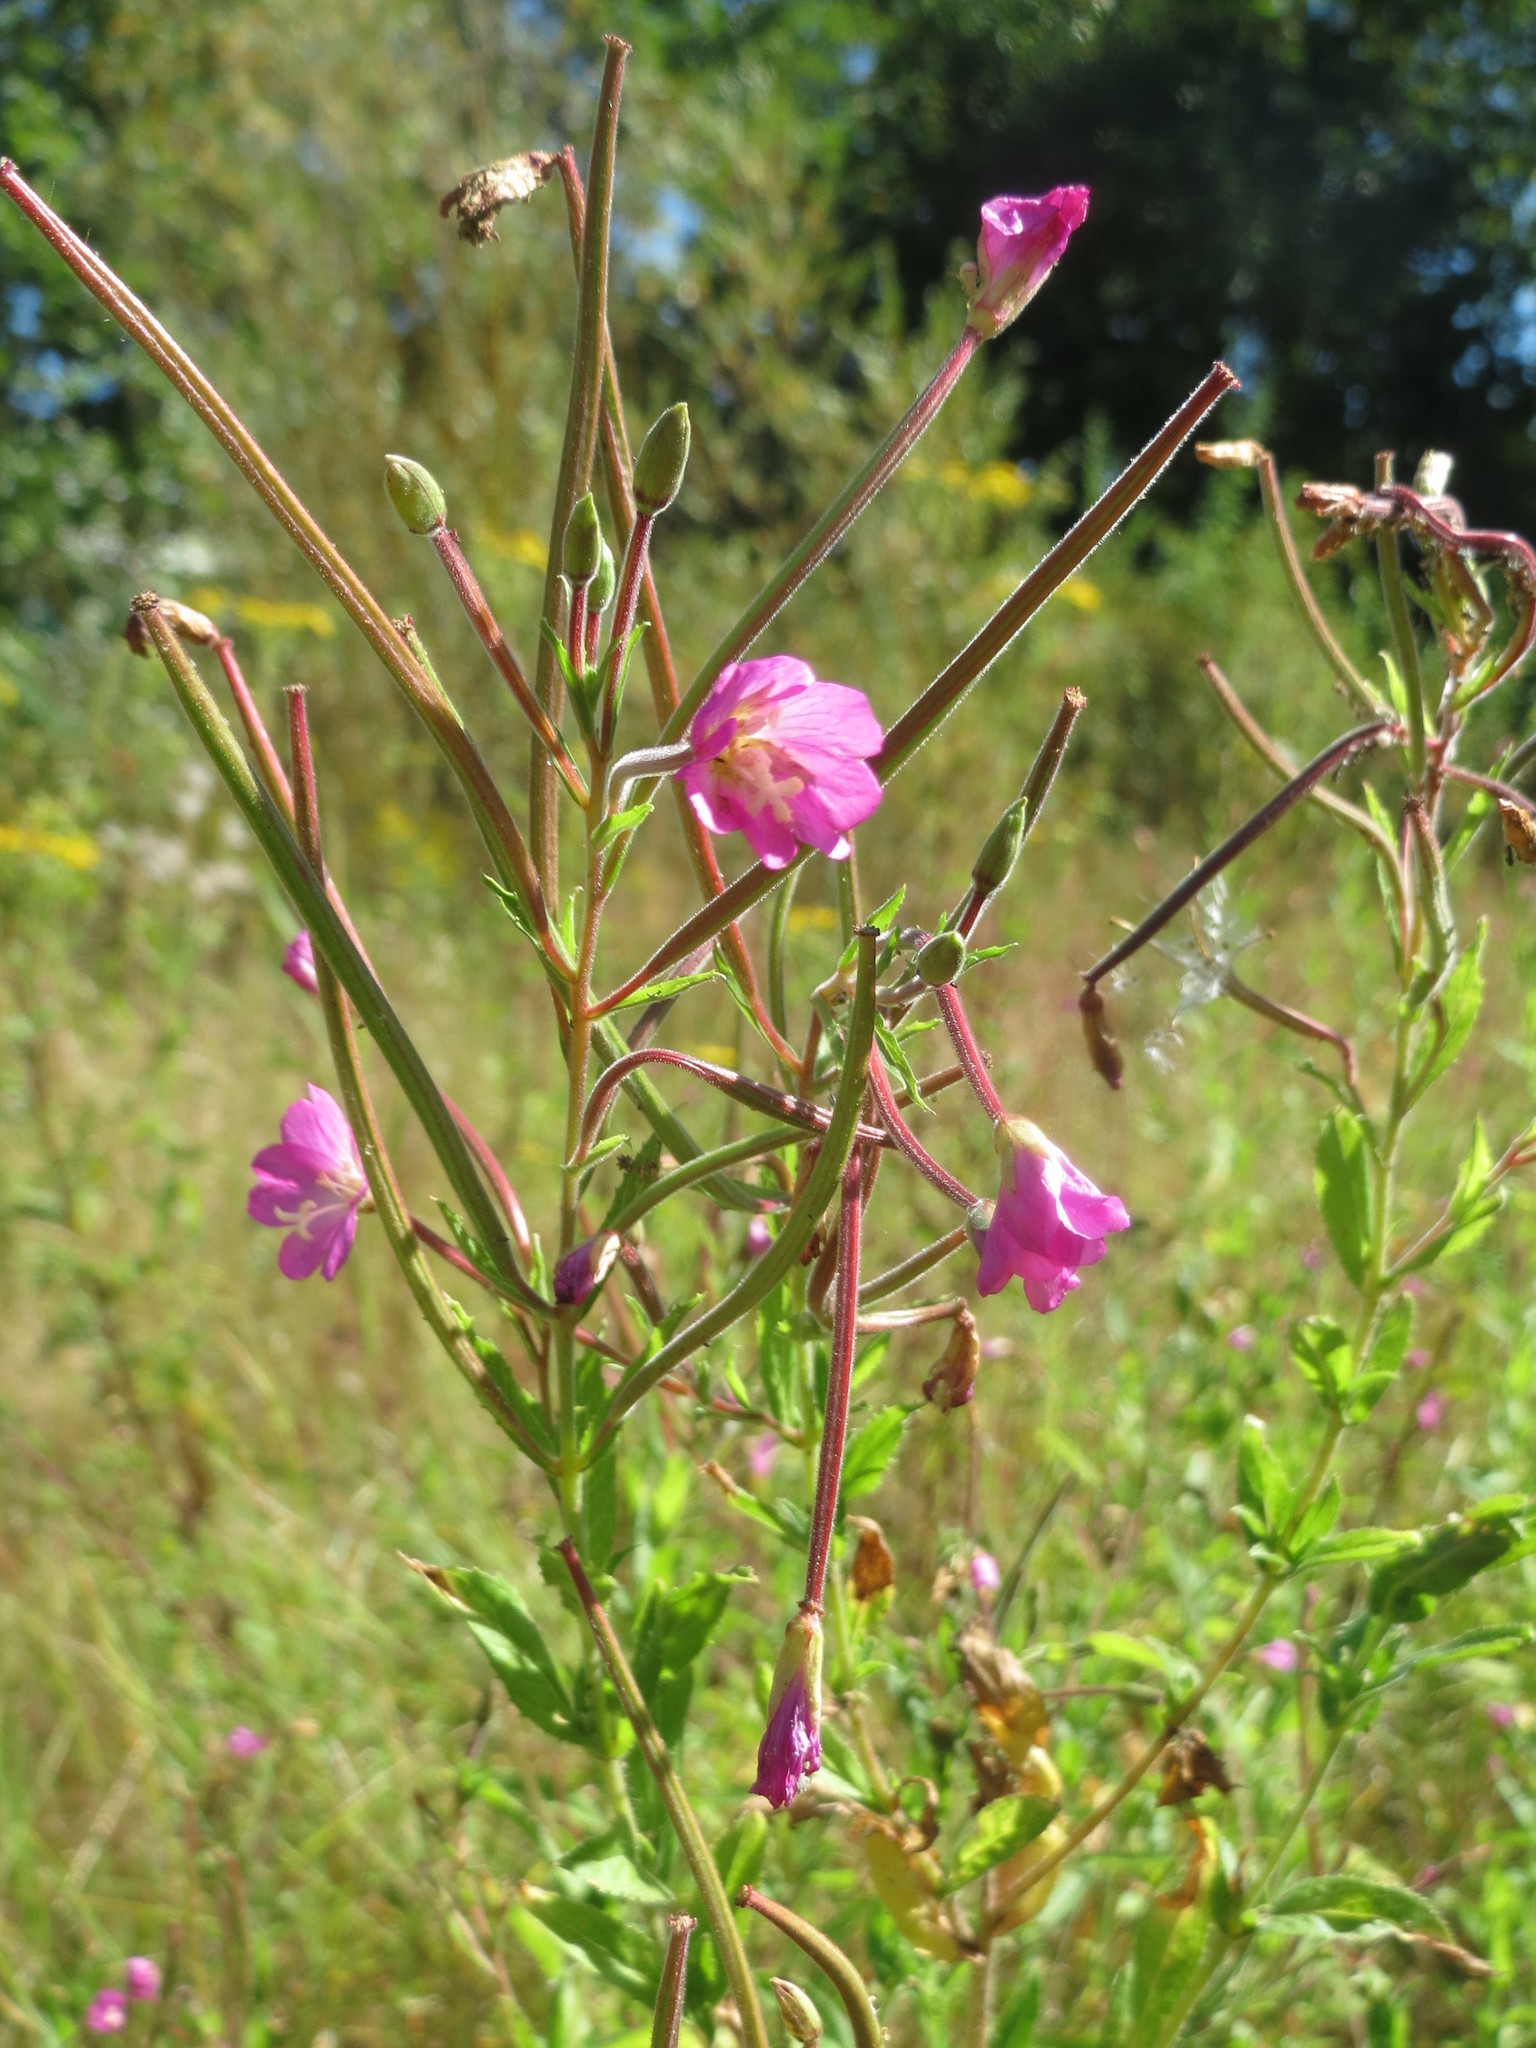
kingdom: Plantae
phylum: Tracheophyta
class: Magnoliopsida
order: Myrtales
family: Onagraceae
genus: Epilobium
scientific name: Epilobium hirsutum
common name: Great willowherb
